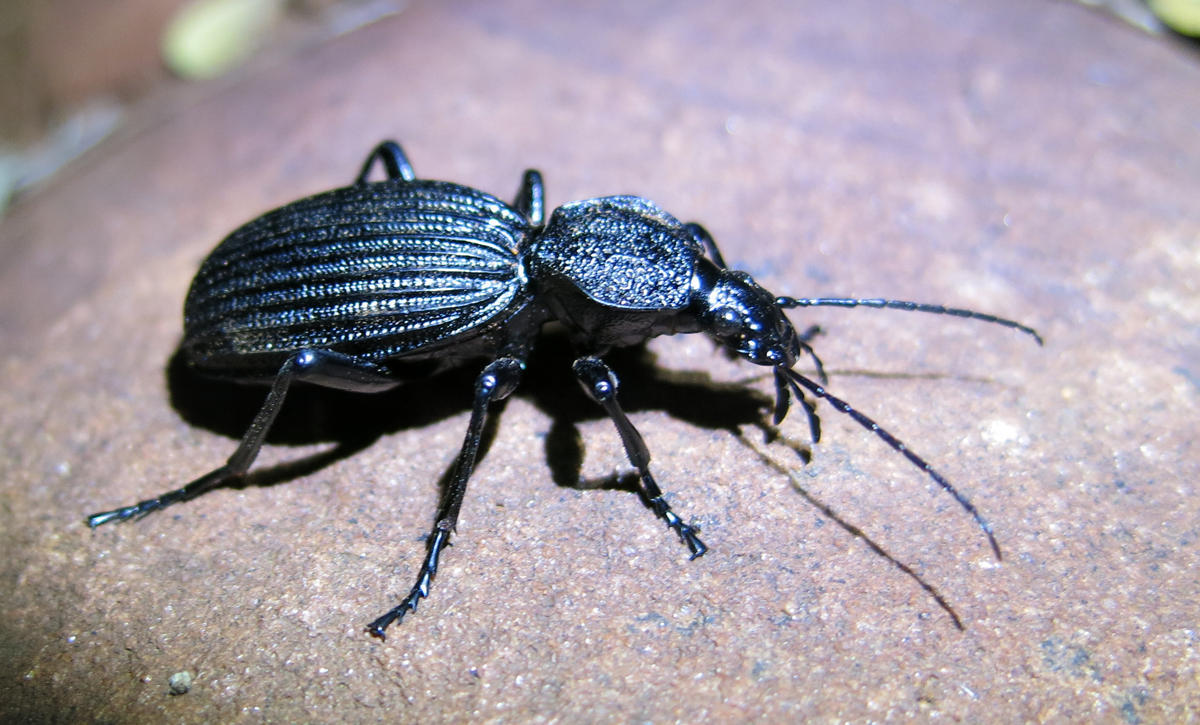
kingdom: Animalia
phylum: Arthropoda
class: Insecta
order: Coleoptera
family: Carabidae
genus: Tefflus
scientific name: Tefflus meyerlei
